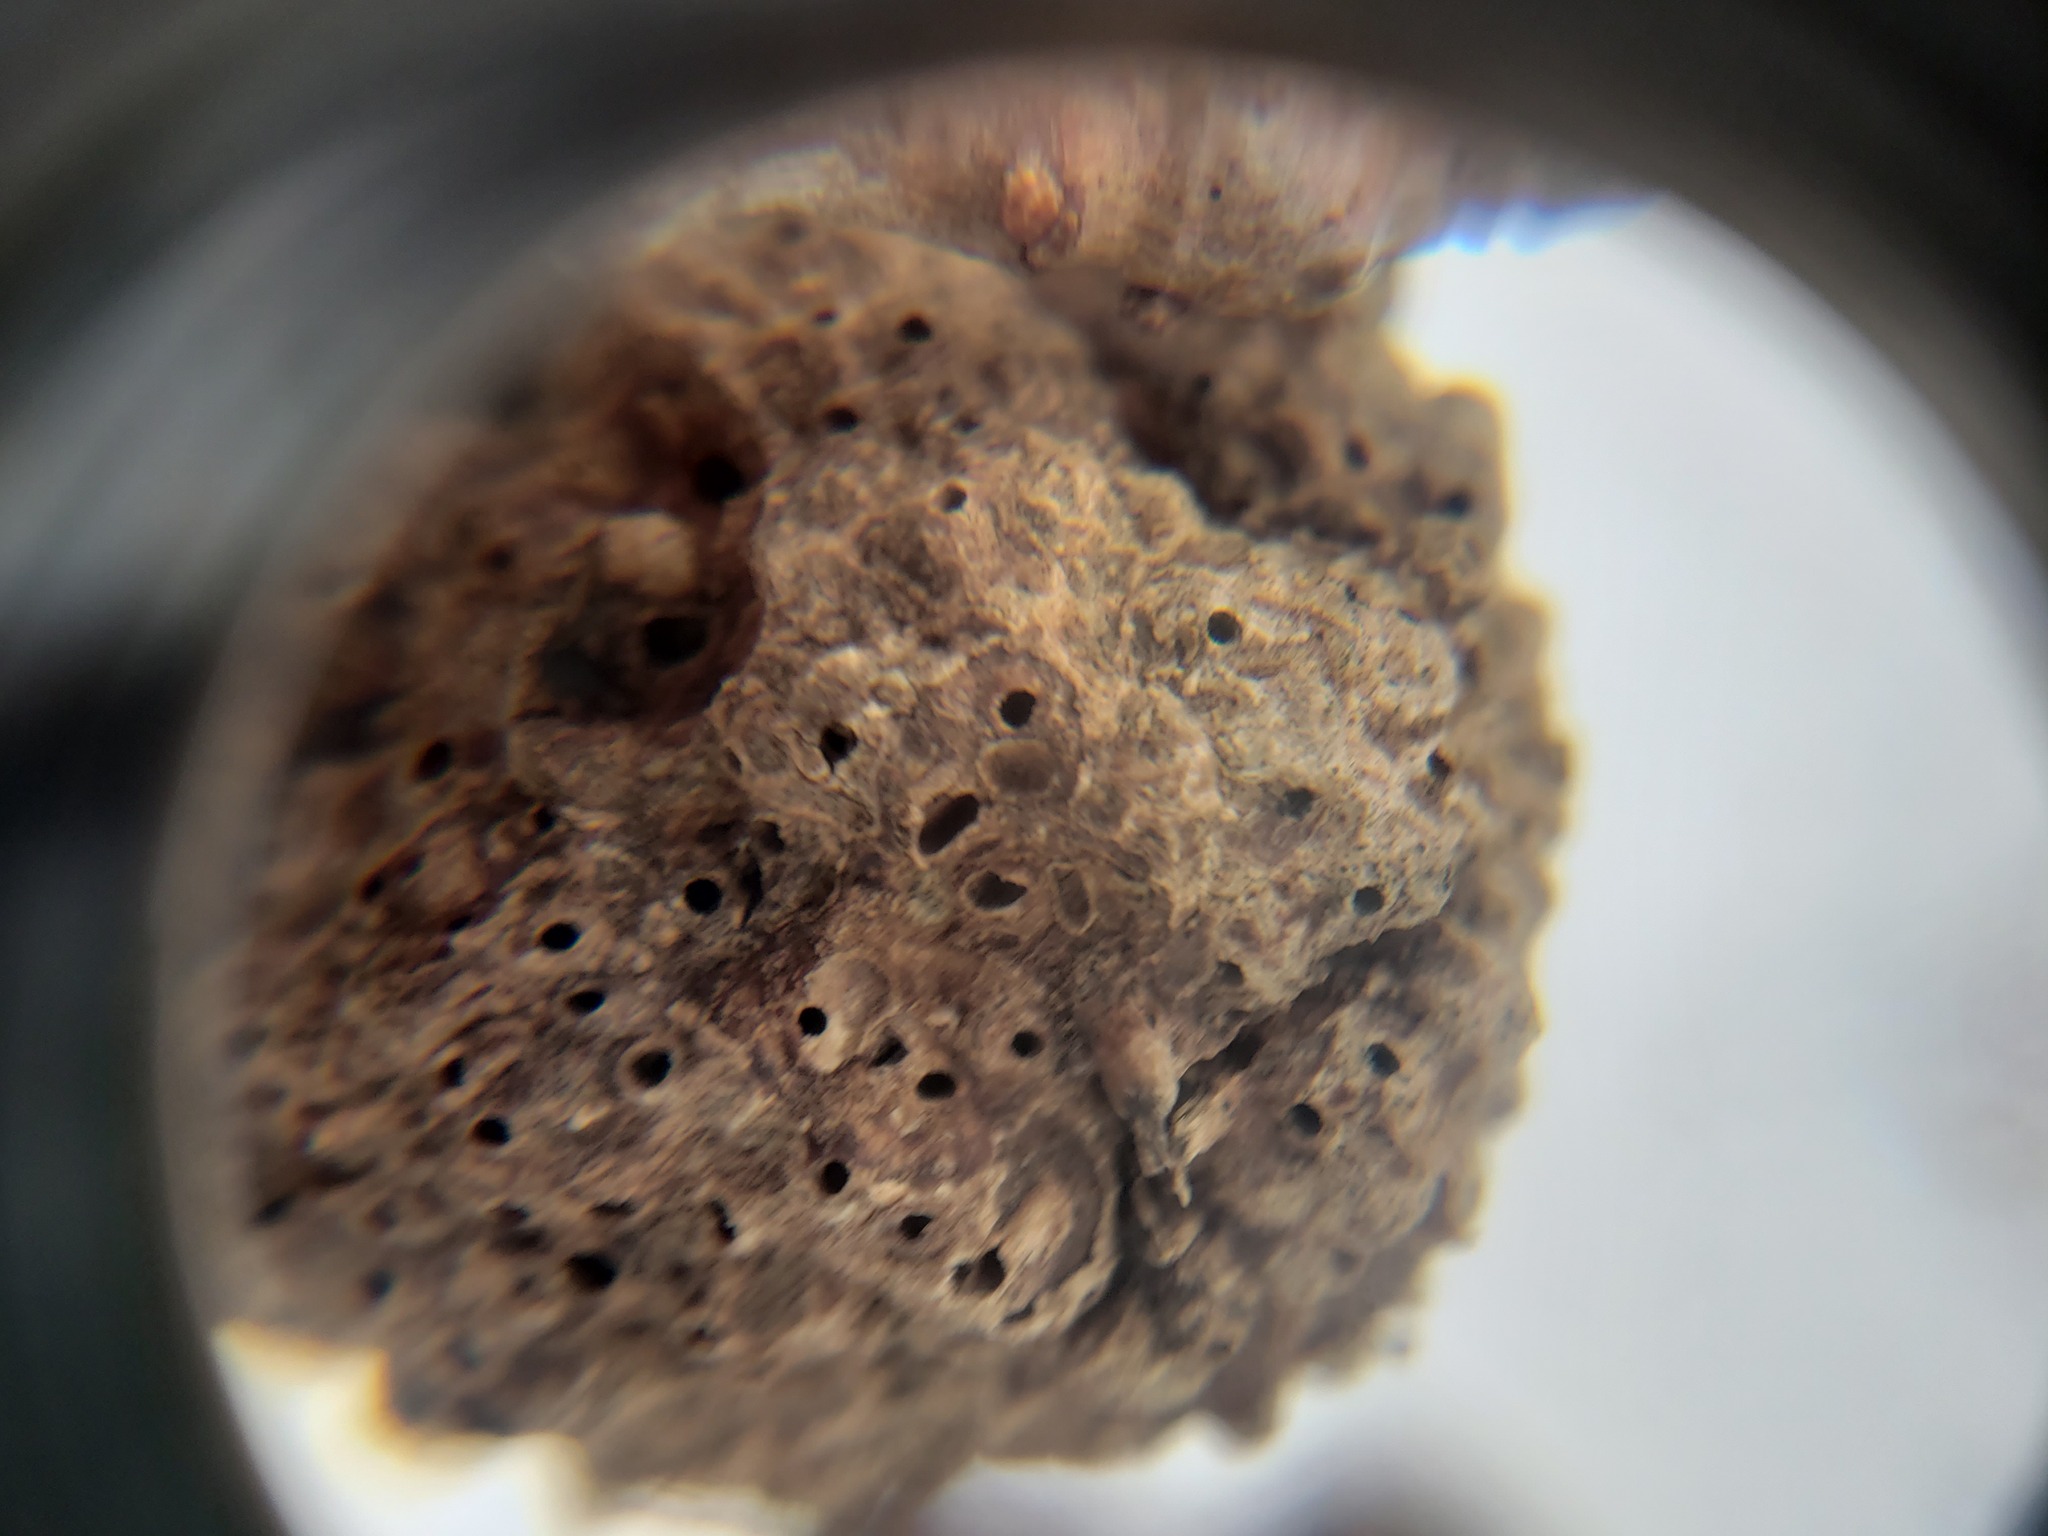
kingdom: Animalia
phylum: Arthropoda
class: Insecta
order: Hymenoptera
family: Cynipidae
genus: Callirhytis
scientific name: Callirhytis
